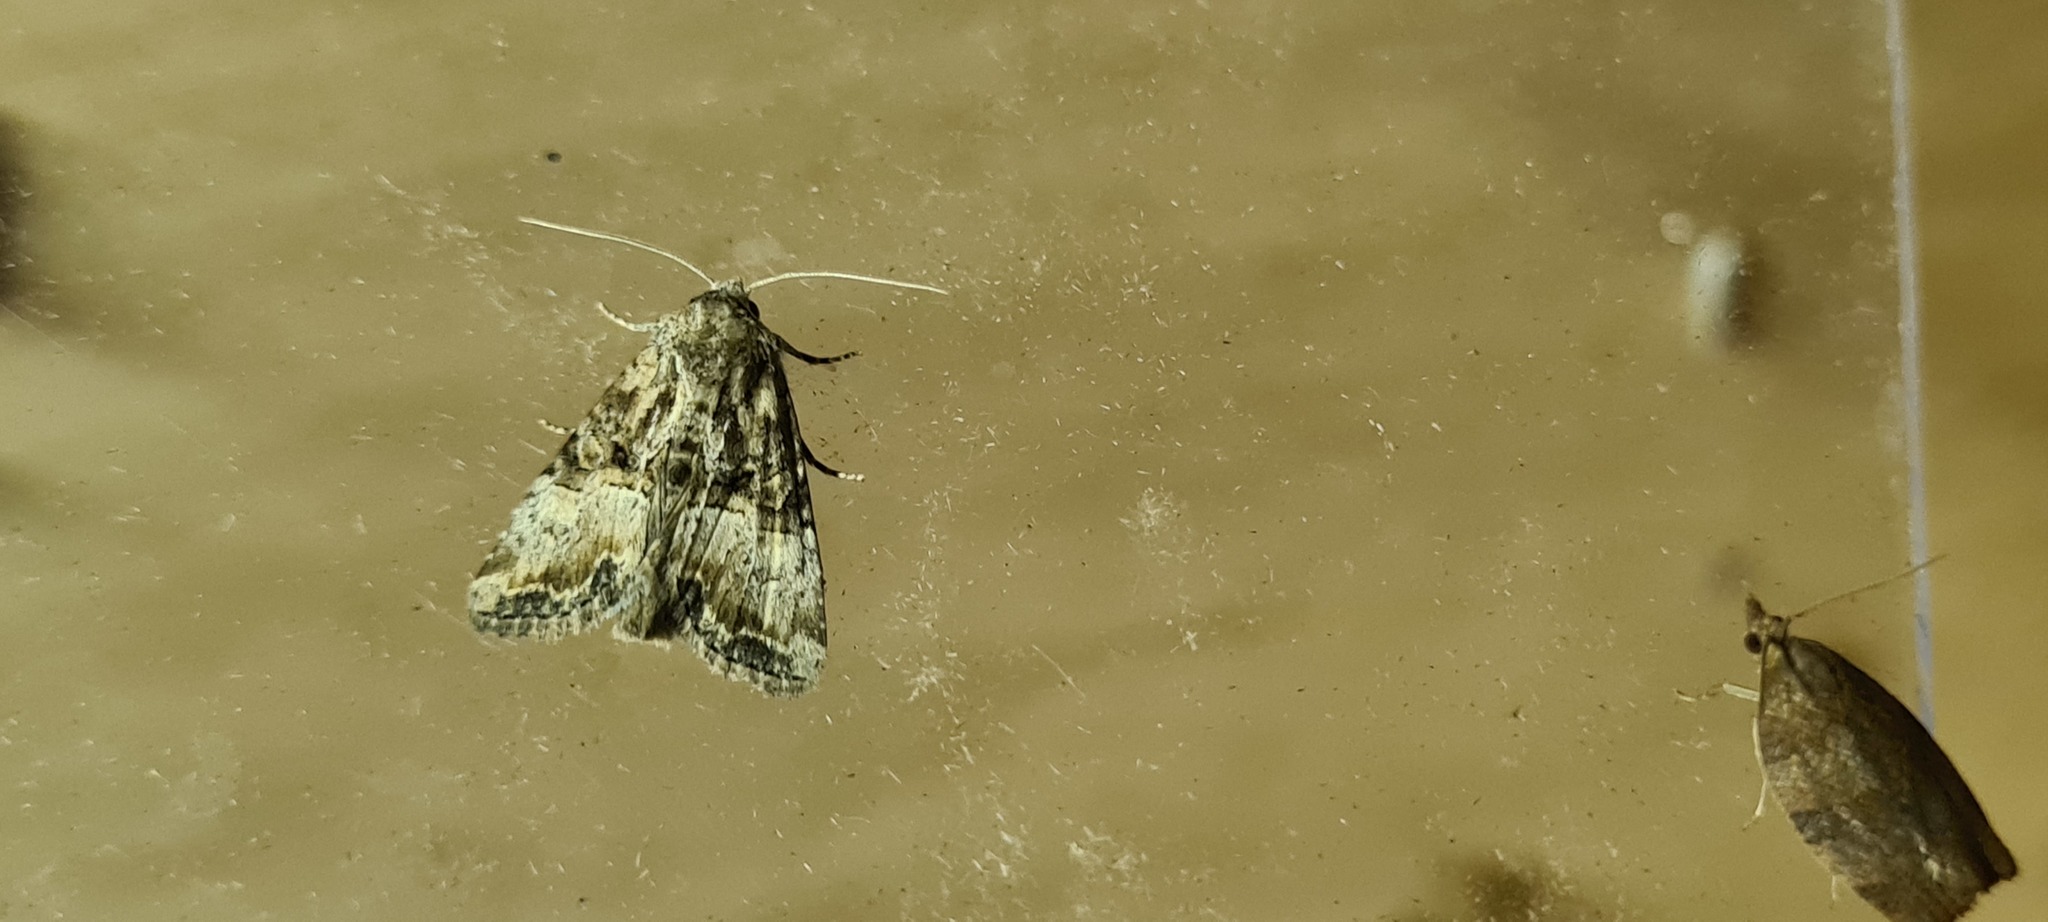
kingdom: Animalia
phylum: Arthropoda
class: Insecta
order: Lepidoptera
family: Noctuidae
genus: Mesoligia
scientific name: Mesoligia furuncula
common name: Cloaked minor
